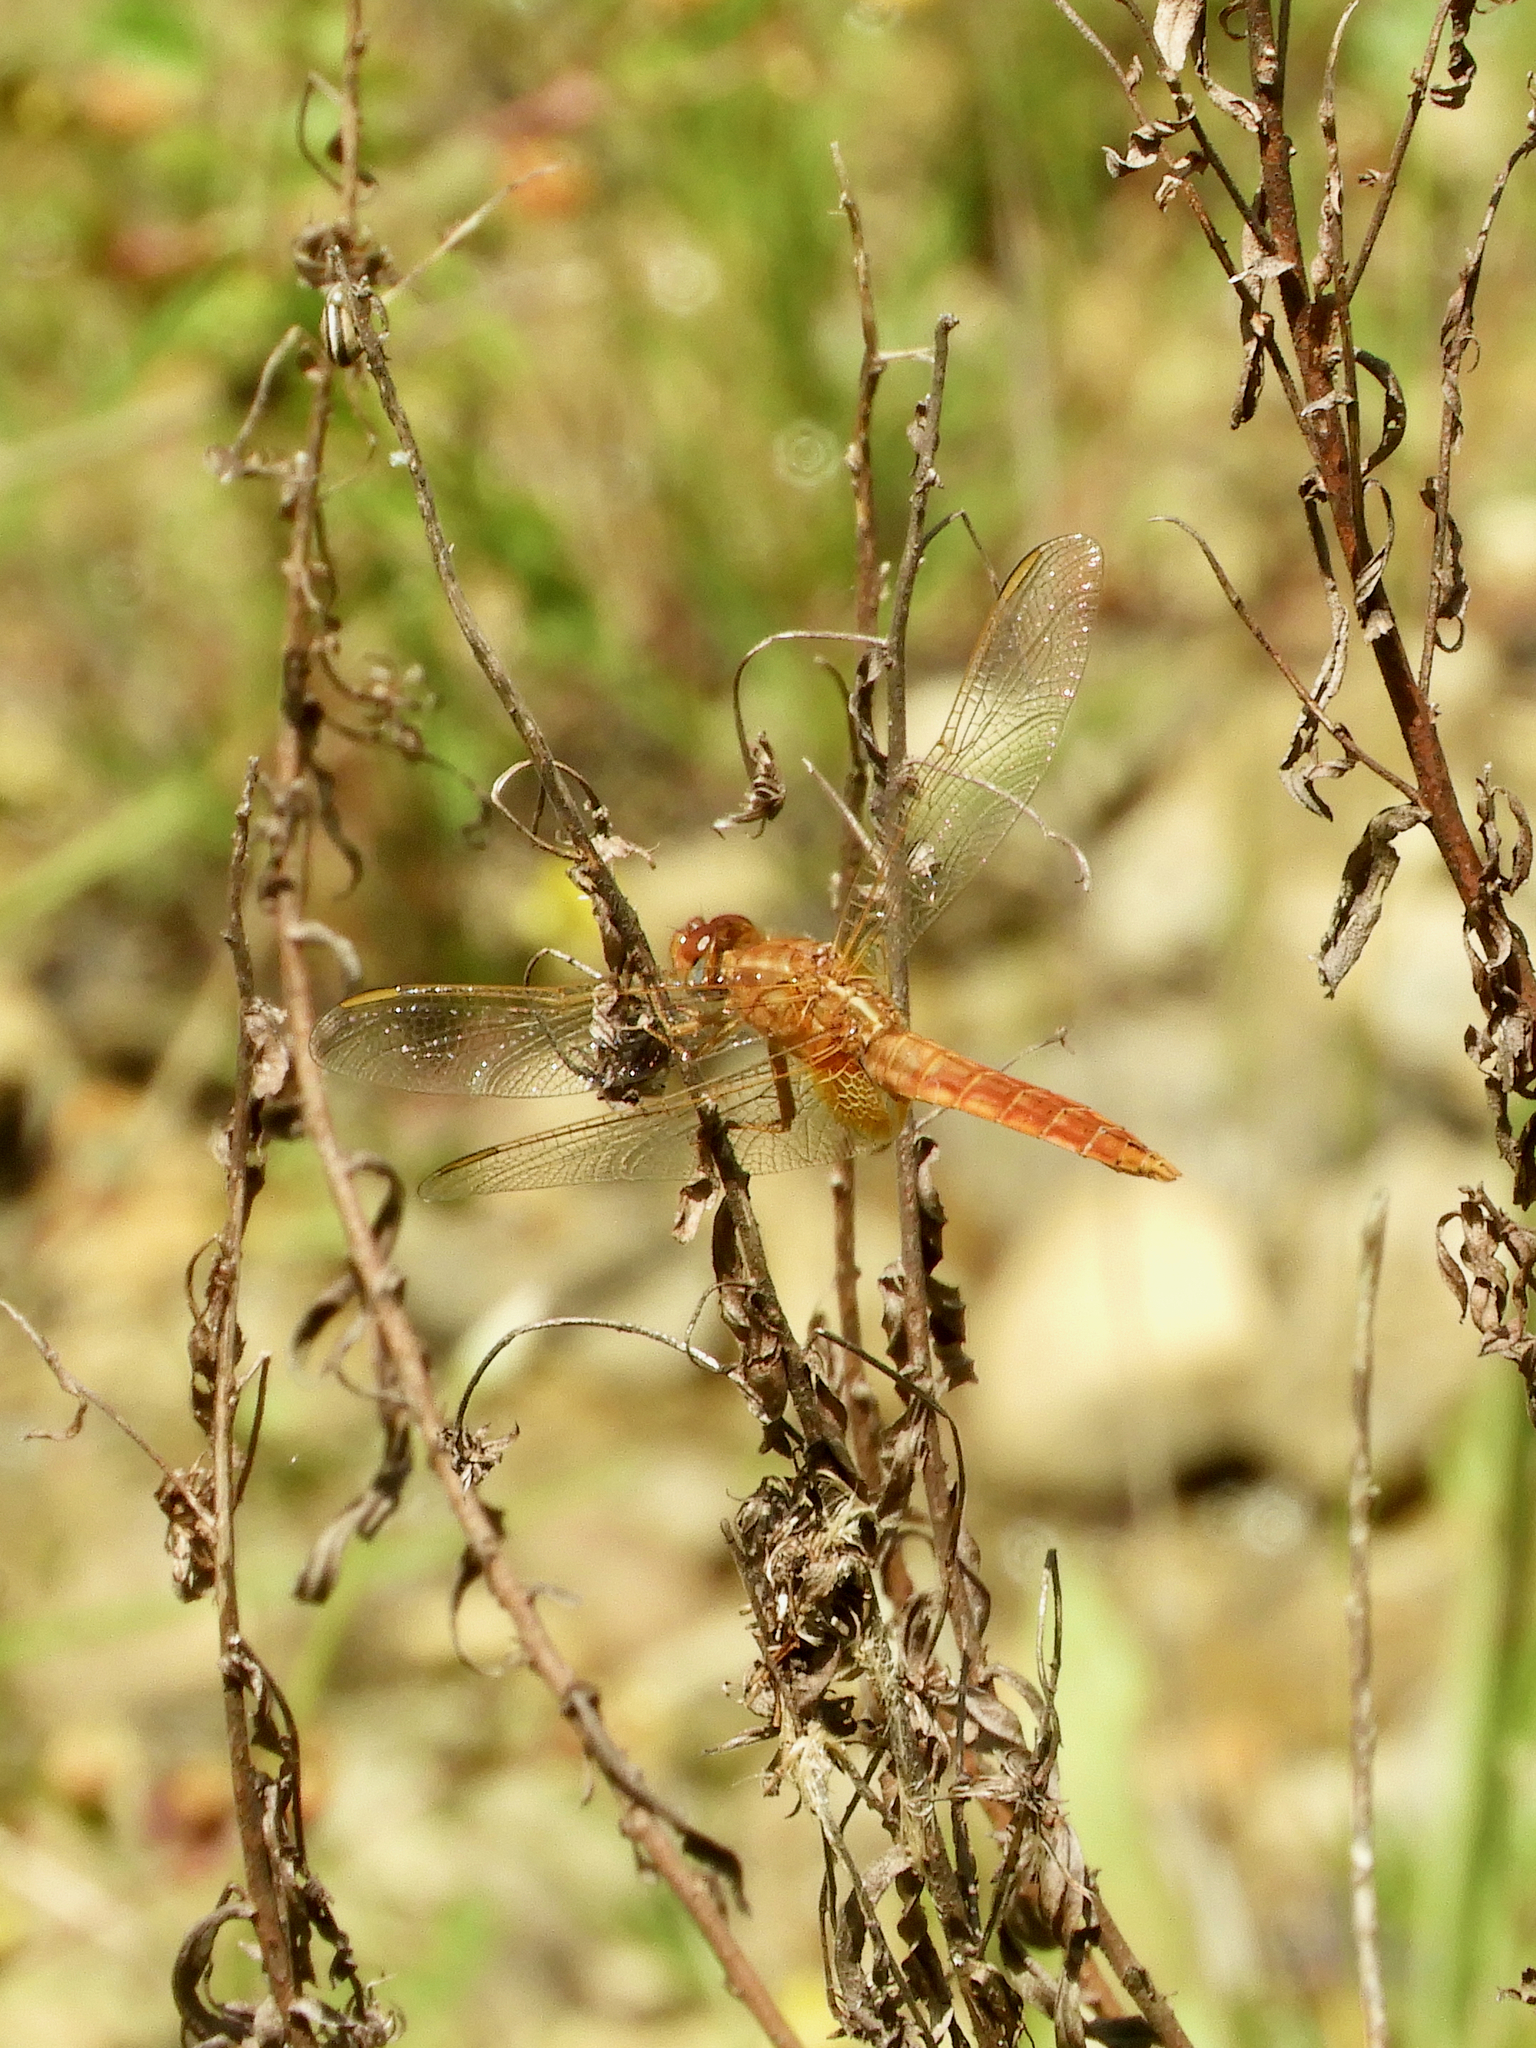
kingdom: Animalia
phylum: Arthropoda
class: Insecta
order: Odonata
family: Libellulidae
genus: Crocothemis
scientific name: Crocothemis erythraea
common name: Scarlet dragonfly
